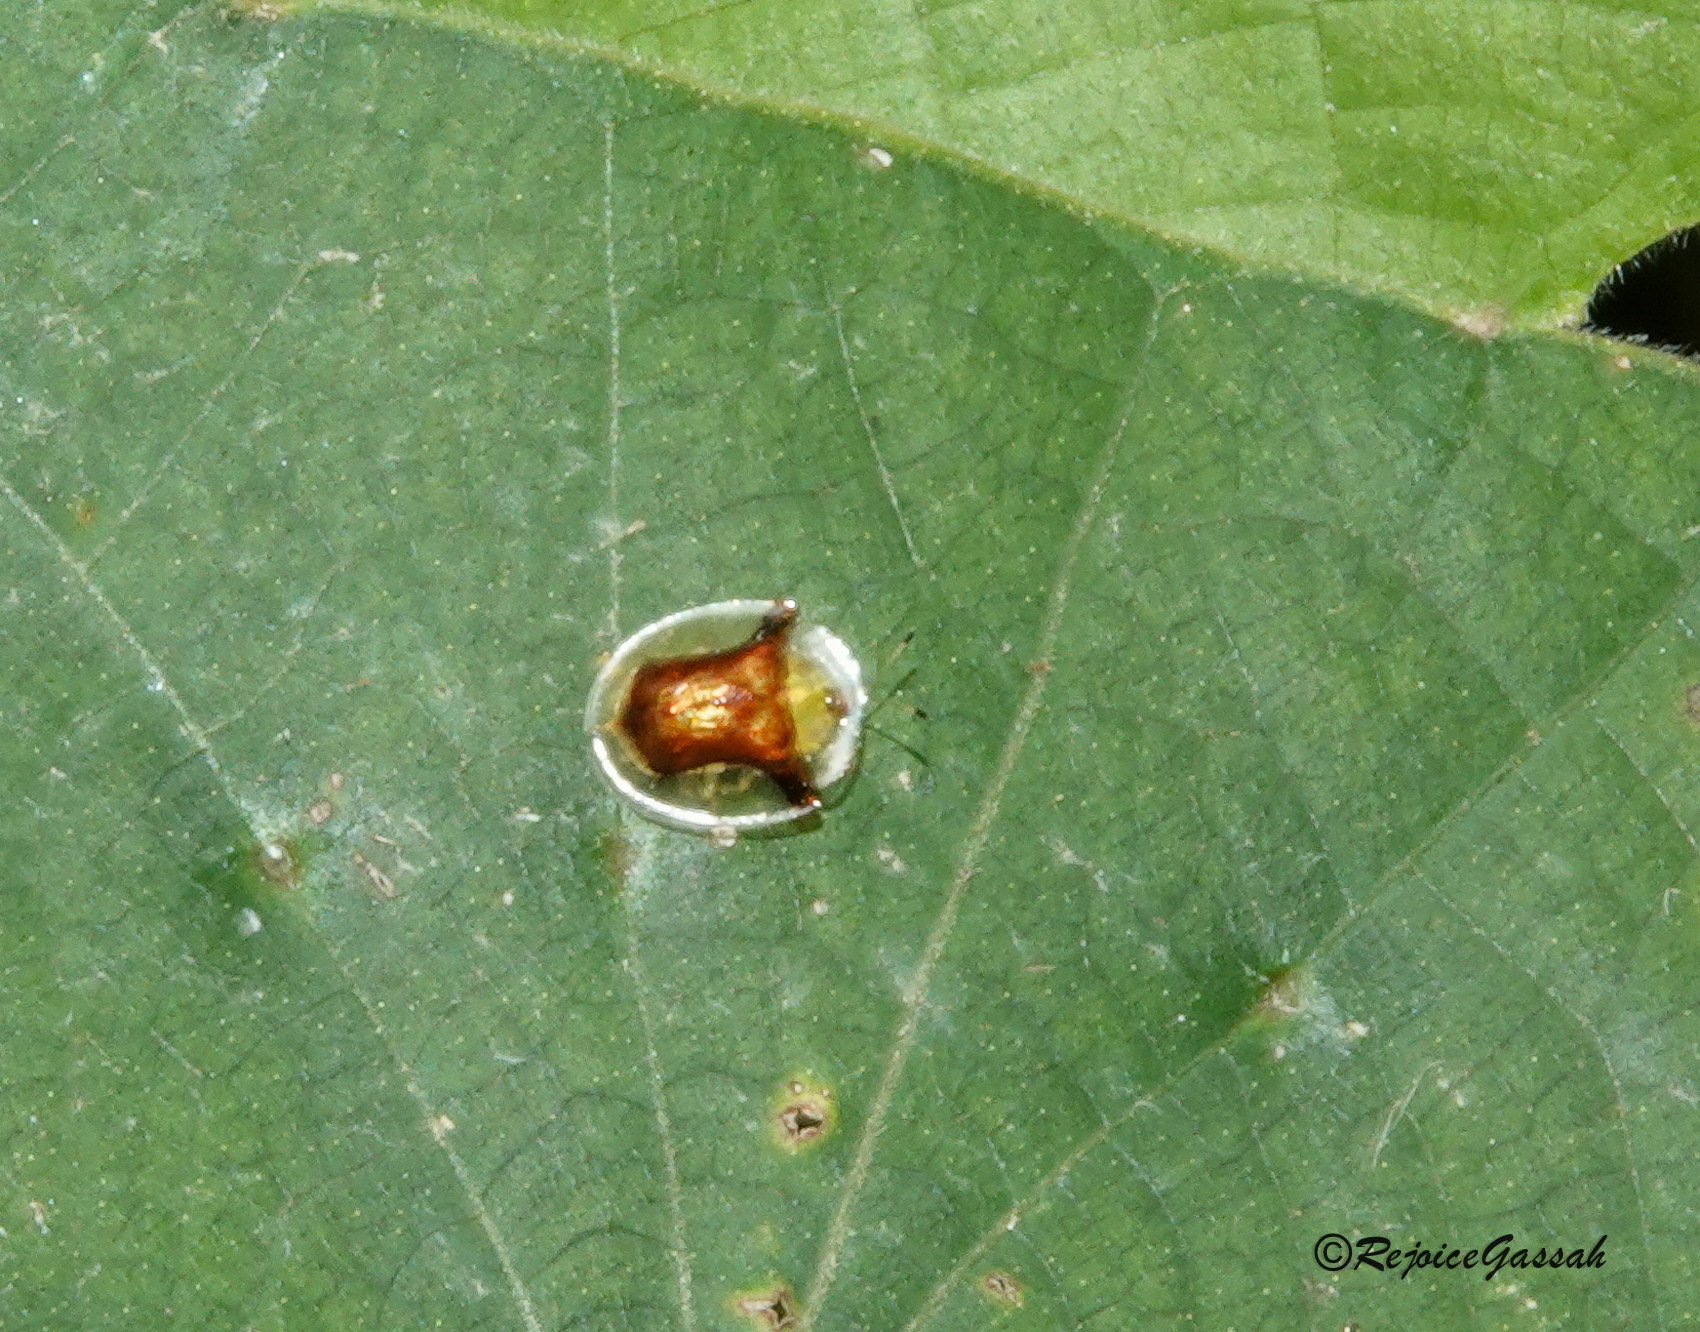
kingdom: Animalia
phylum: Arthropoda
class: Insecta
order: Coleoptera
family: Chrysomelidae
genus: Aspidimorpha
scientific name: Aspidimorpha furcata
